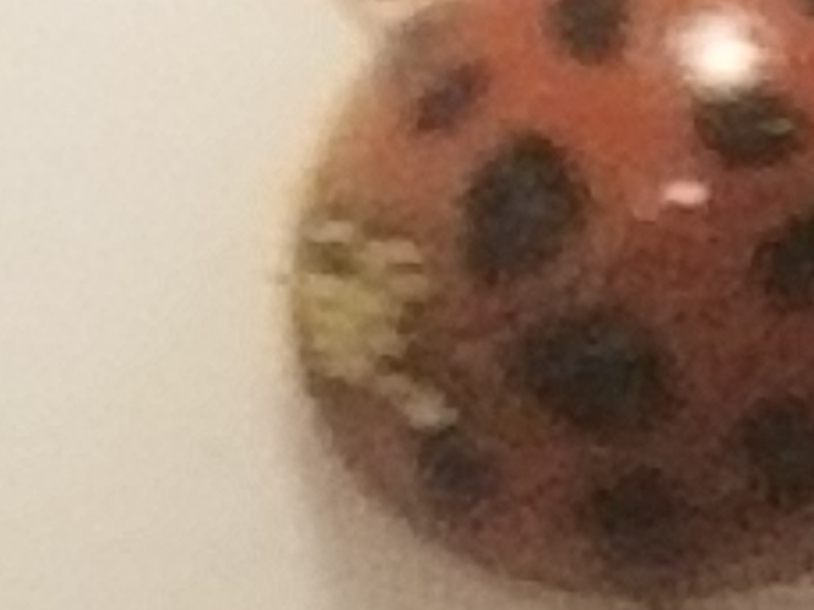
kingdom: Fungi
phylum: Ascomycota
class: Laboulbeniomycetes
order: Laboulbeniales
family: Laboulbeniaceae
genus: Hesperomyces
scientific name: Hesperomyces harmoniae
